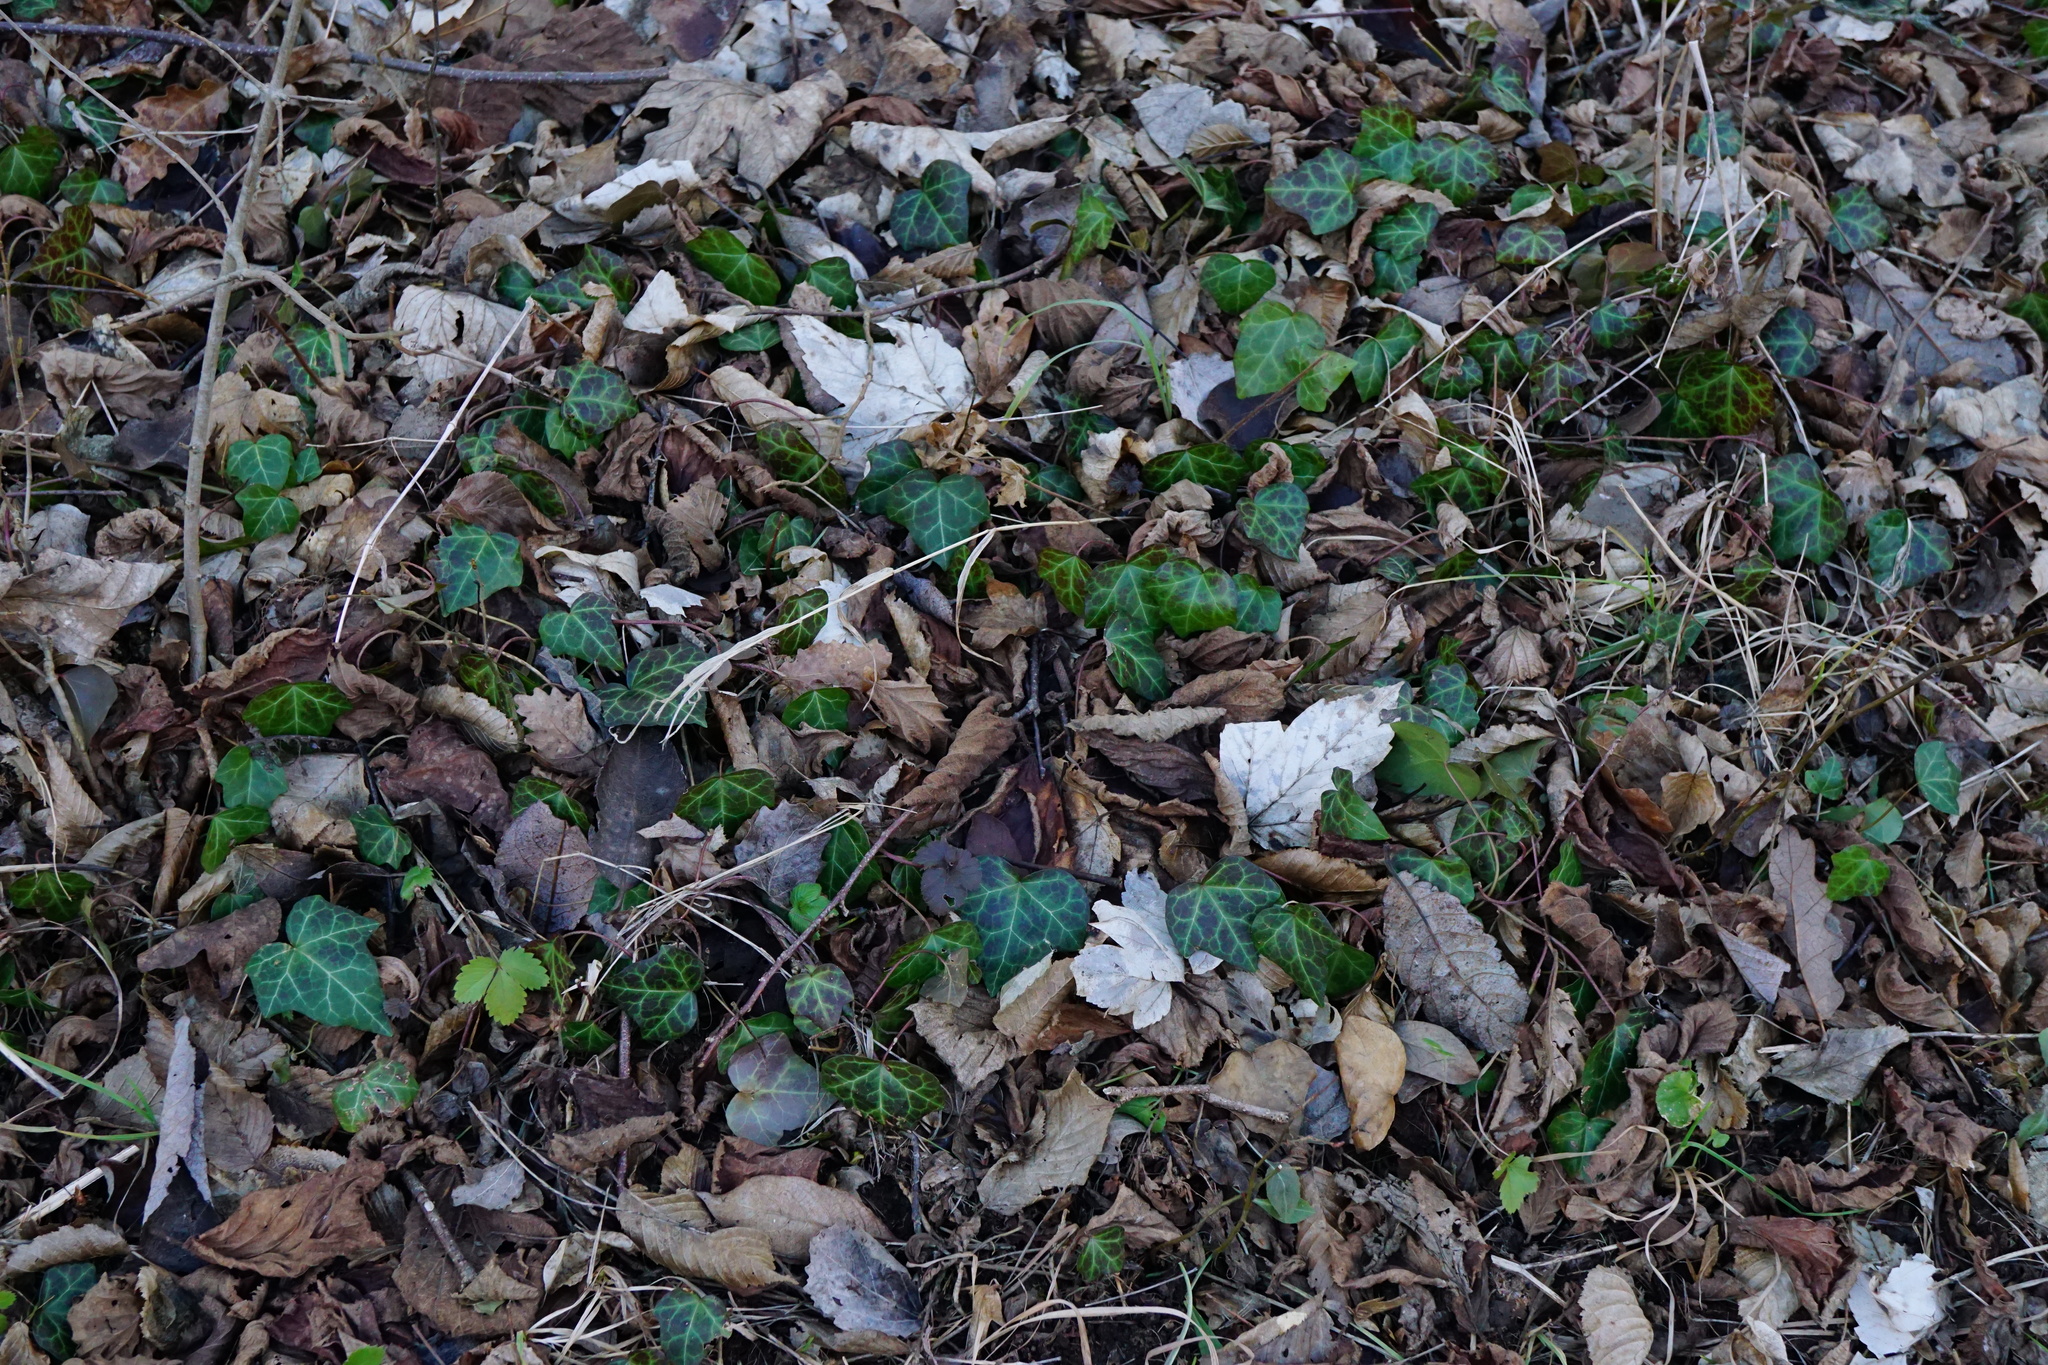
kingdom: Plantae
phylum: Tracheophyta
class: Magnoliopsida
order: Apiales
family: Araliaceae
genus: Hedera
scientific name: Hedera helix
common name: Ivy
